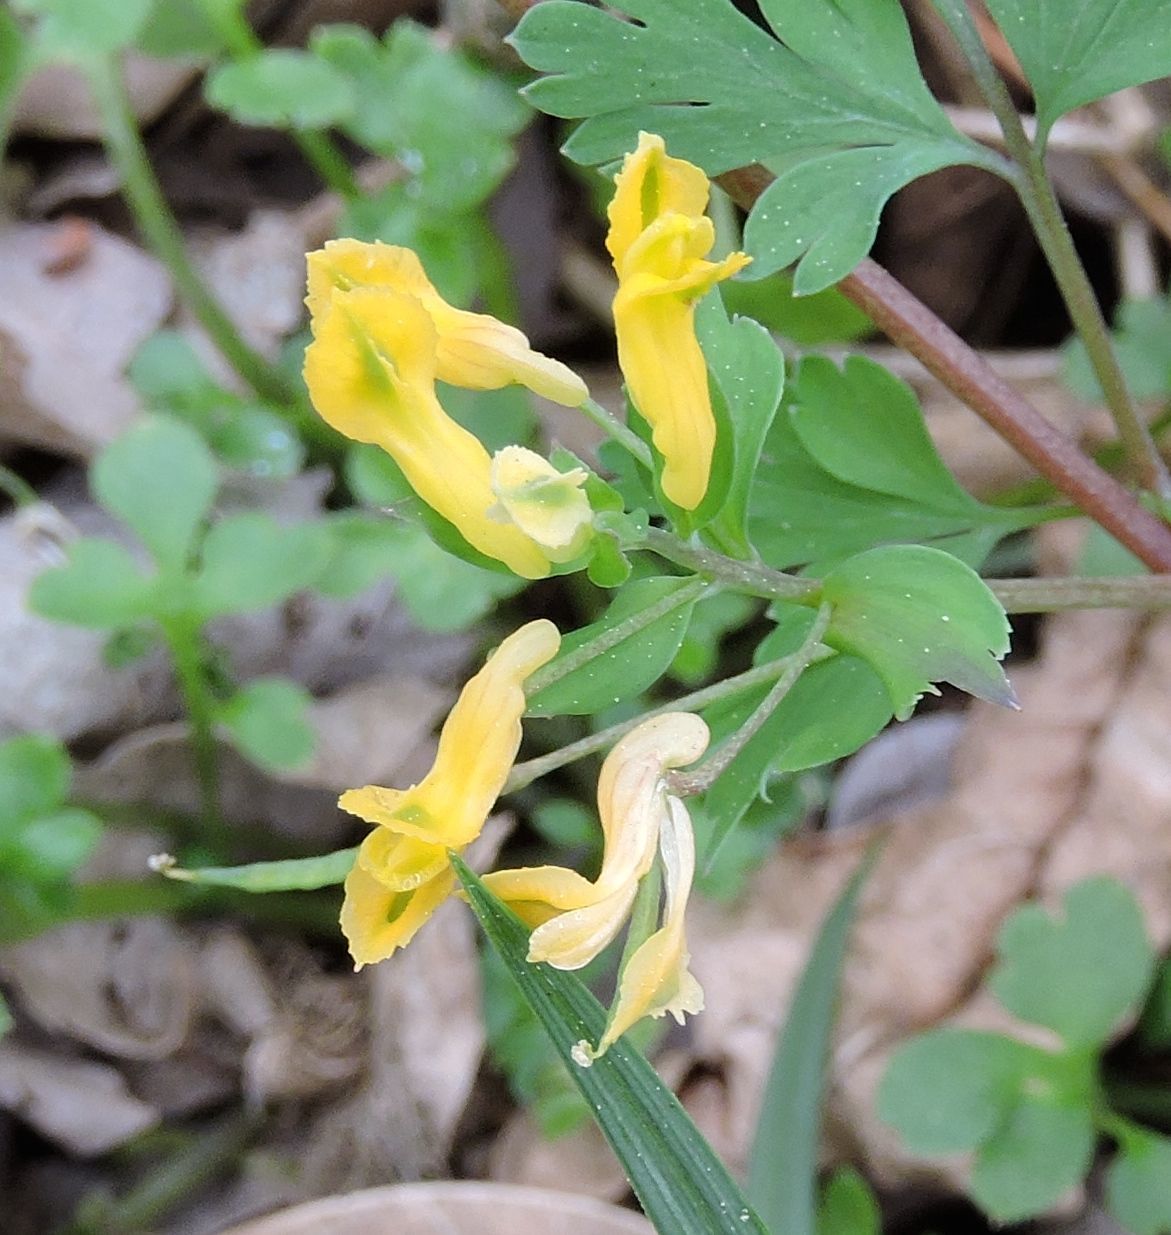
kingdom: Plantae
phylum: Tracheophyta
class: Magnoliopsida
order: Ranunculales
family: Papaveraceae
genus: Corydalis
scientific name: Corydalis flavula
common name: Yellow corydalis
